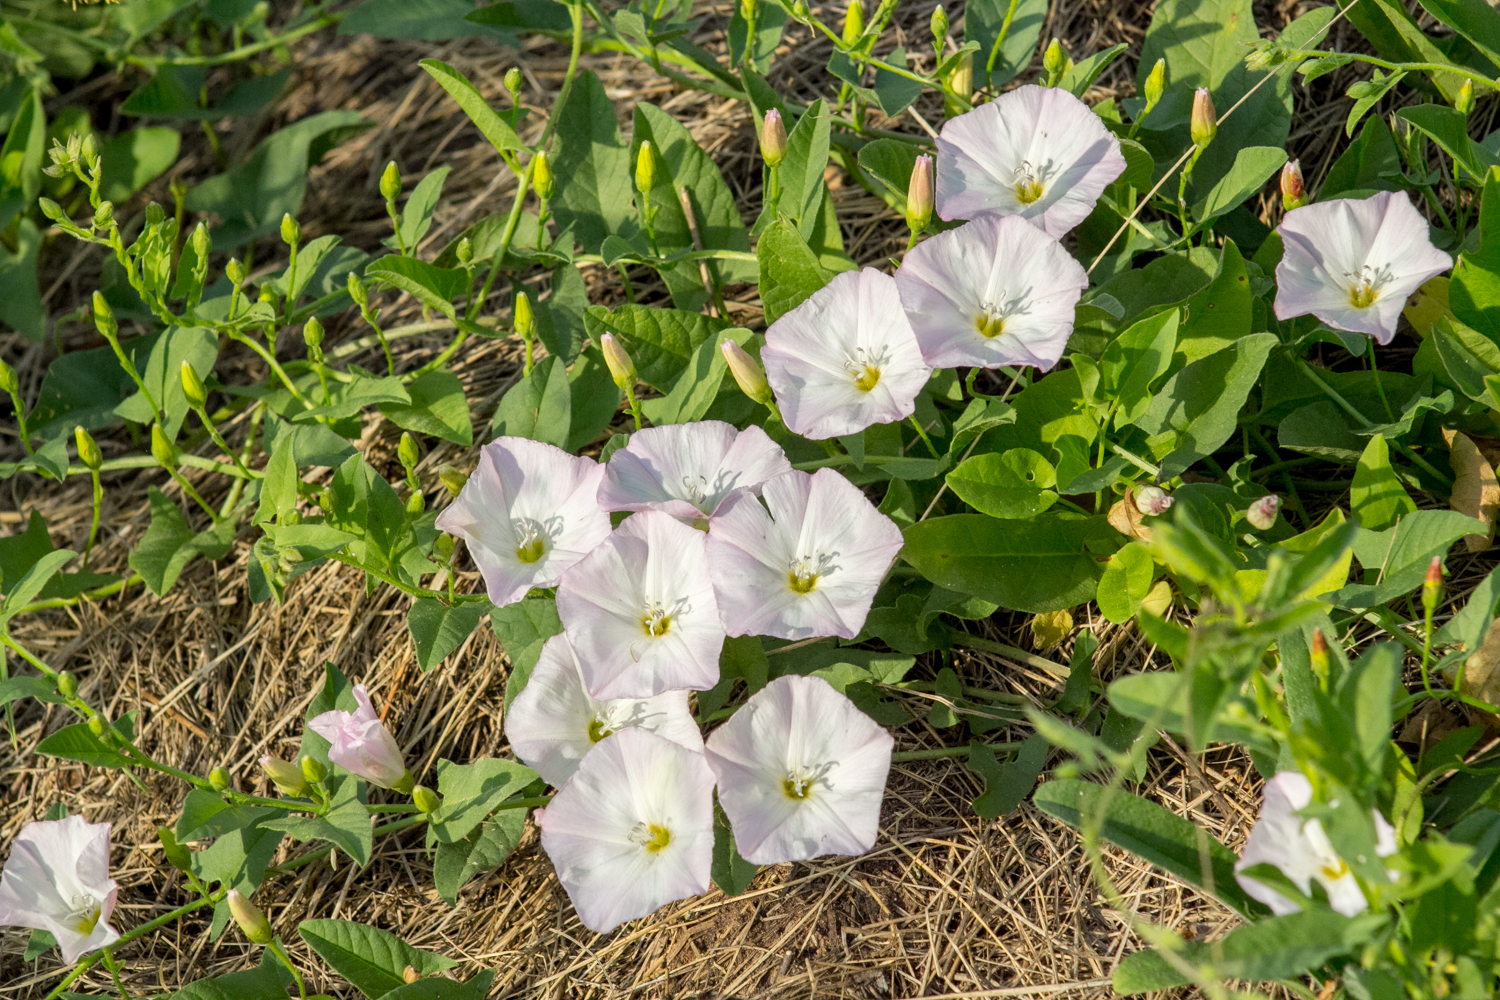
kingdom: Plantae
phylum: Tracheophyta
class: Magnoliopsida
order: Solanales
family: Convolvulaceae
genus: Convolvulus
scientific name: Convolvulus arvensis
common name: Field bindweed
